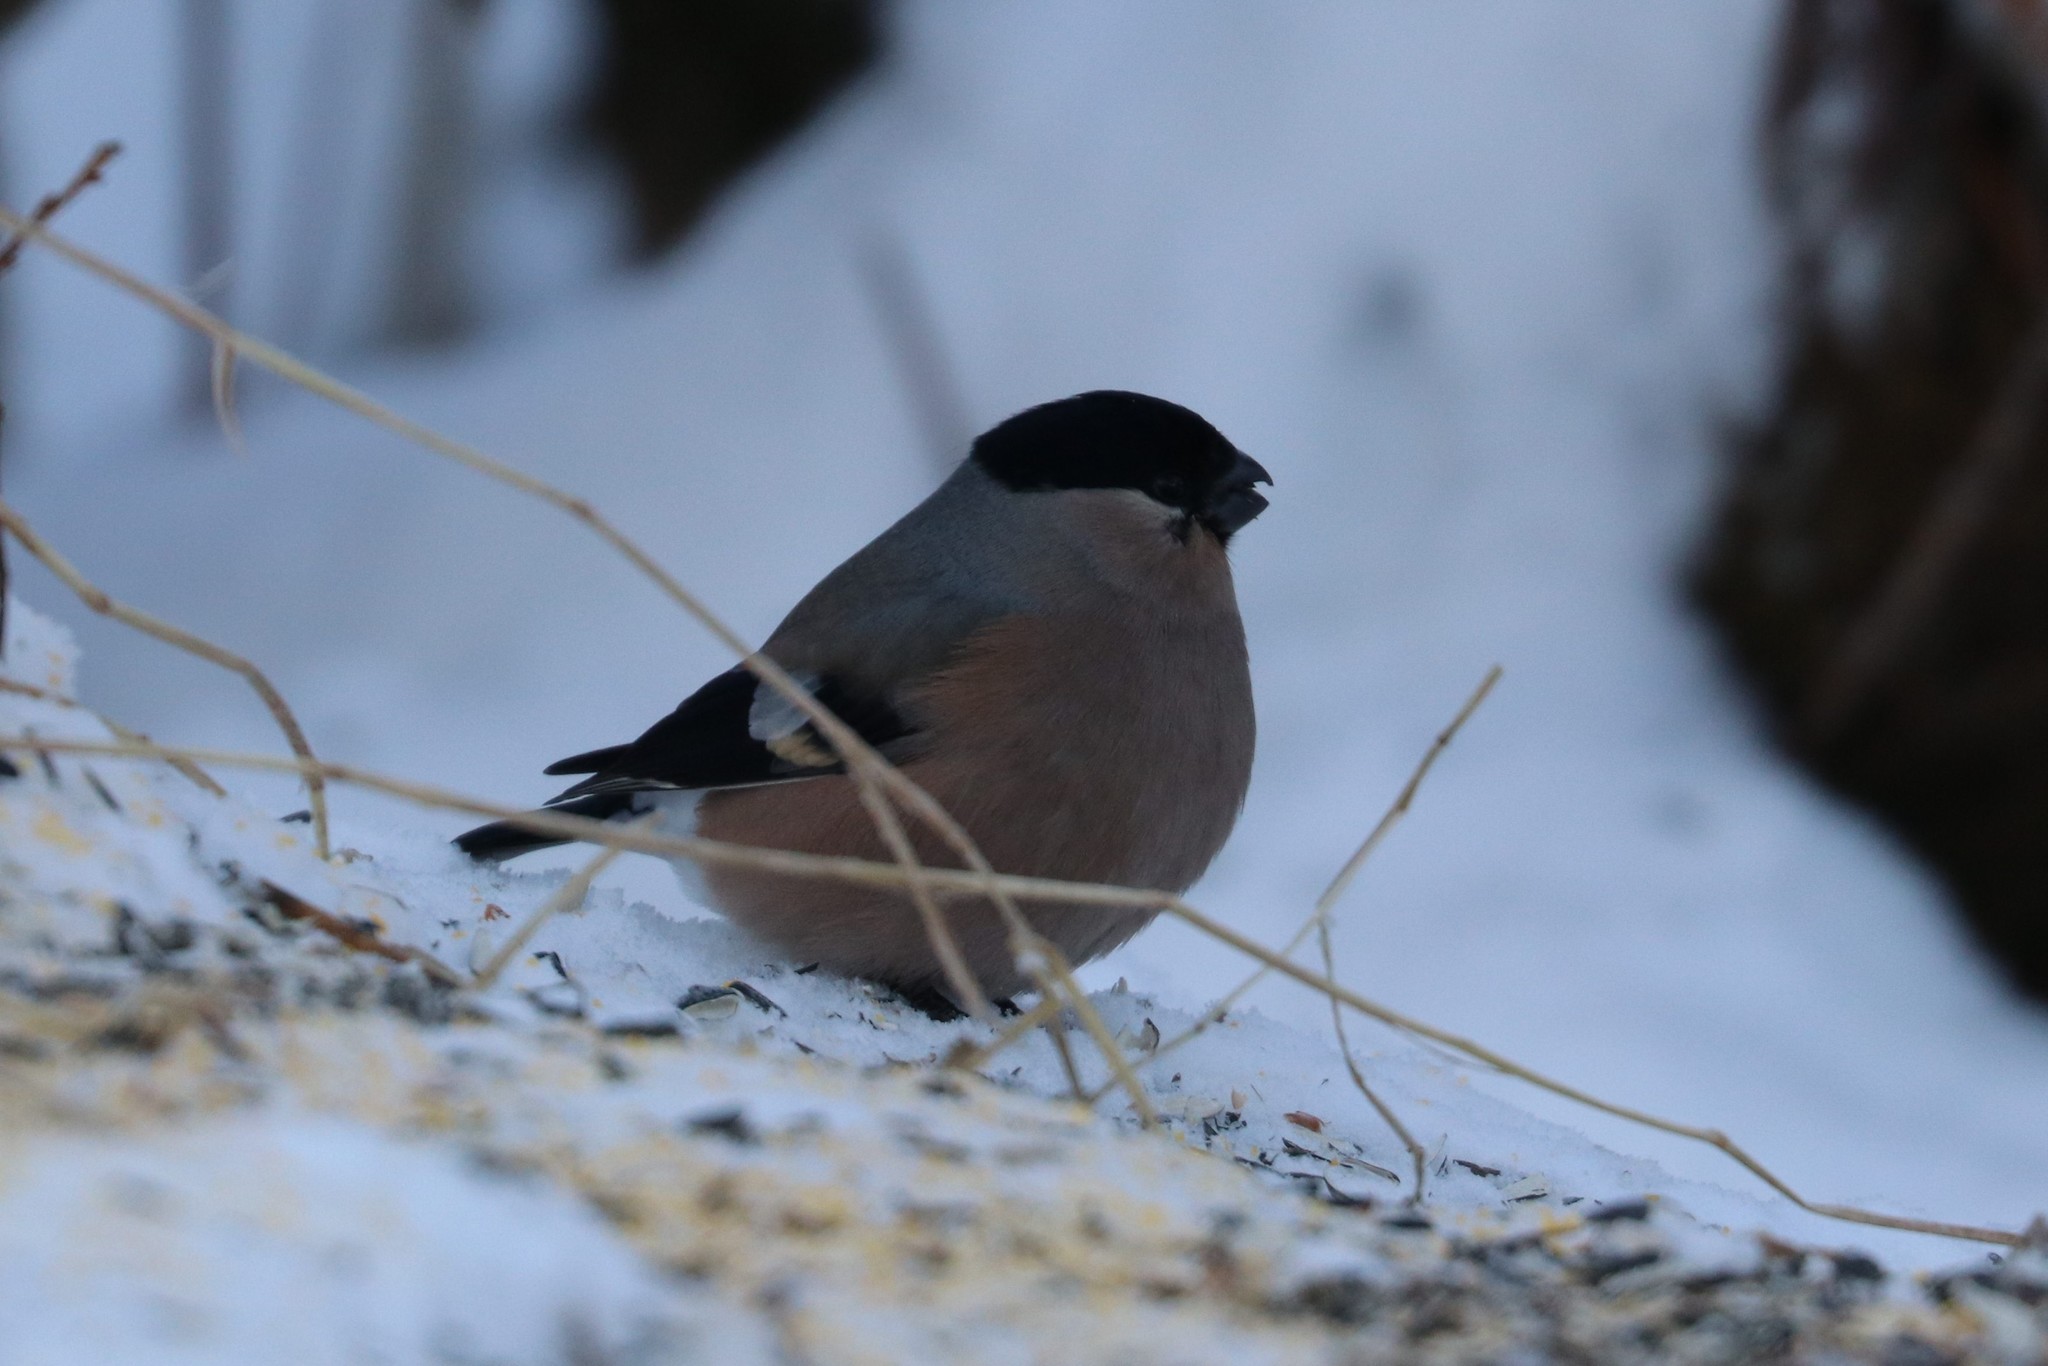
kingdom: Animalia
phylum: Chordata
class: Aves
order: Passeriformes
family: Fringillidae
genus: Pyrrhula
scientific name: Pyrrhula pyrrhula
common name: Eurasian bullfinch
